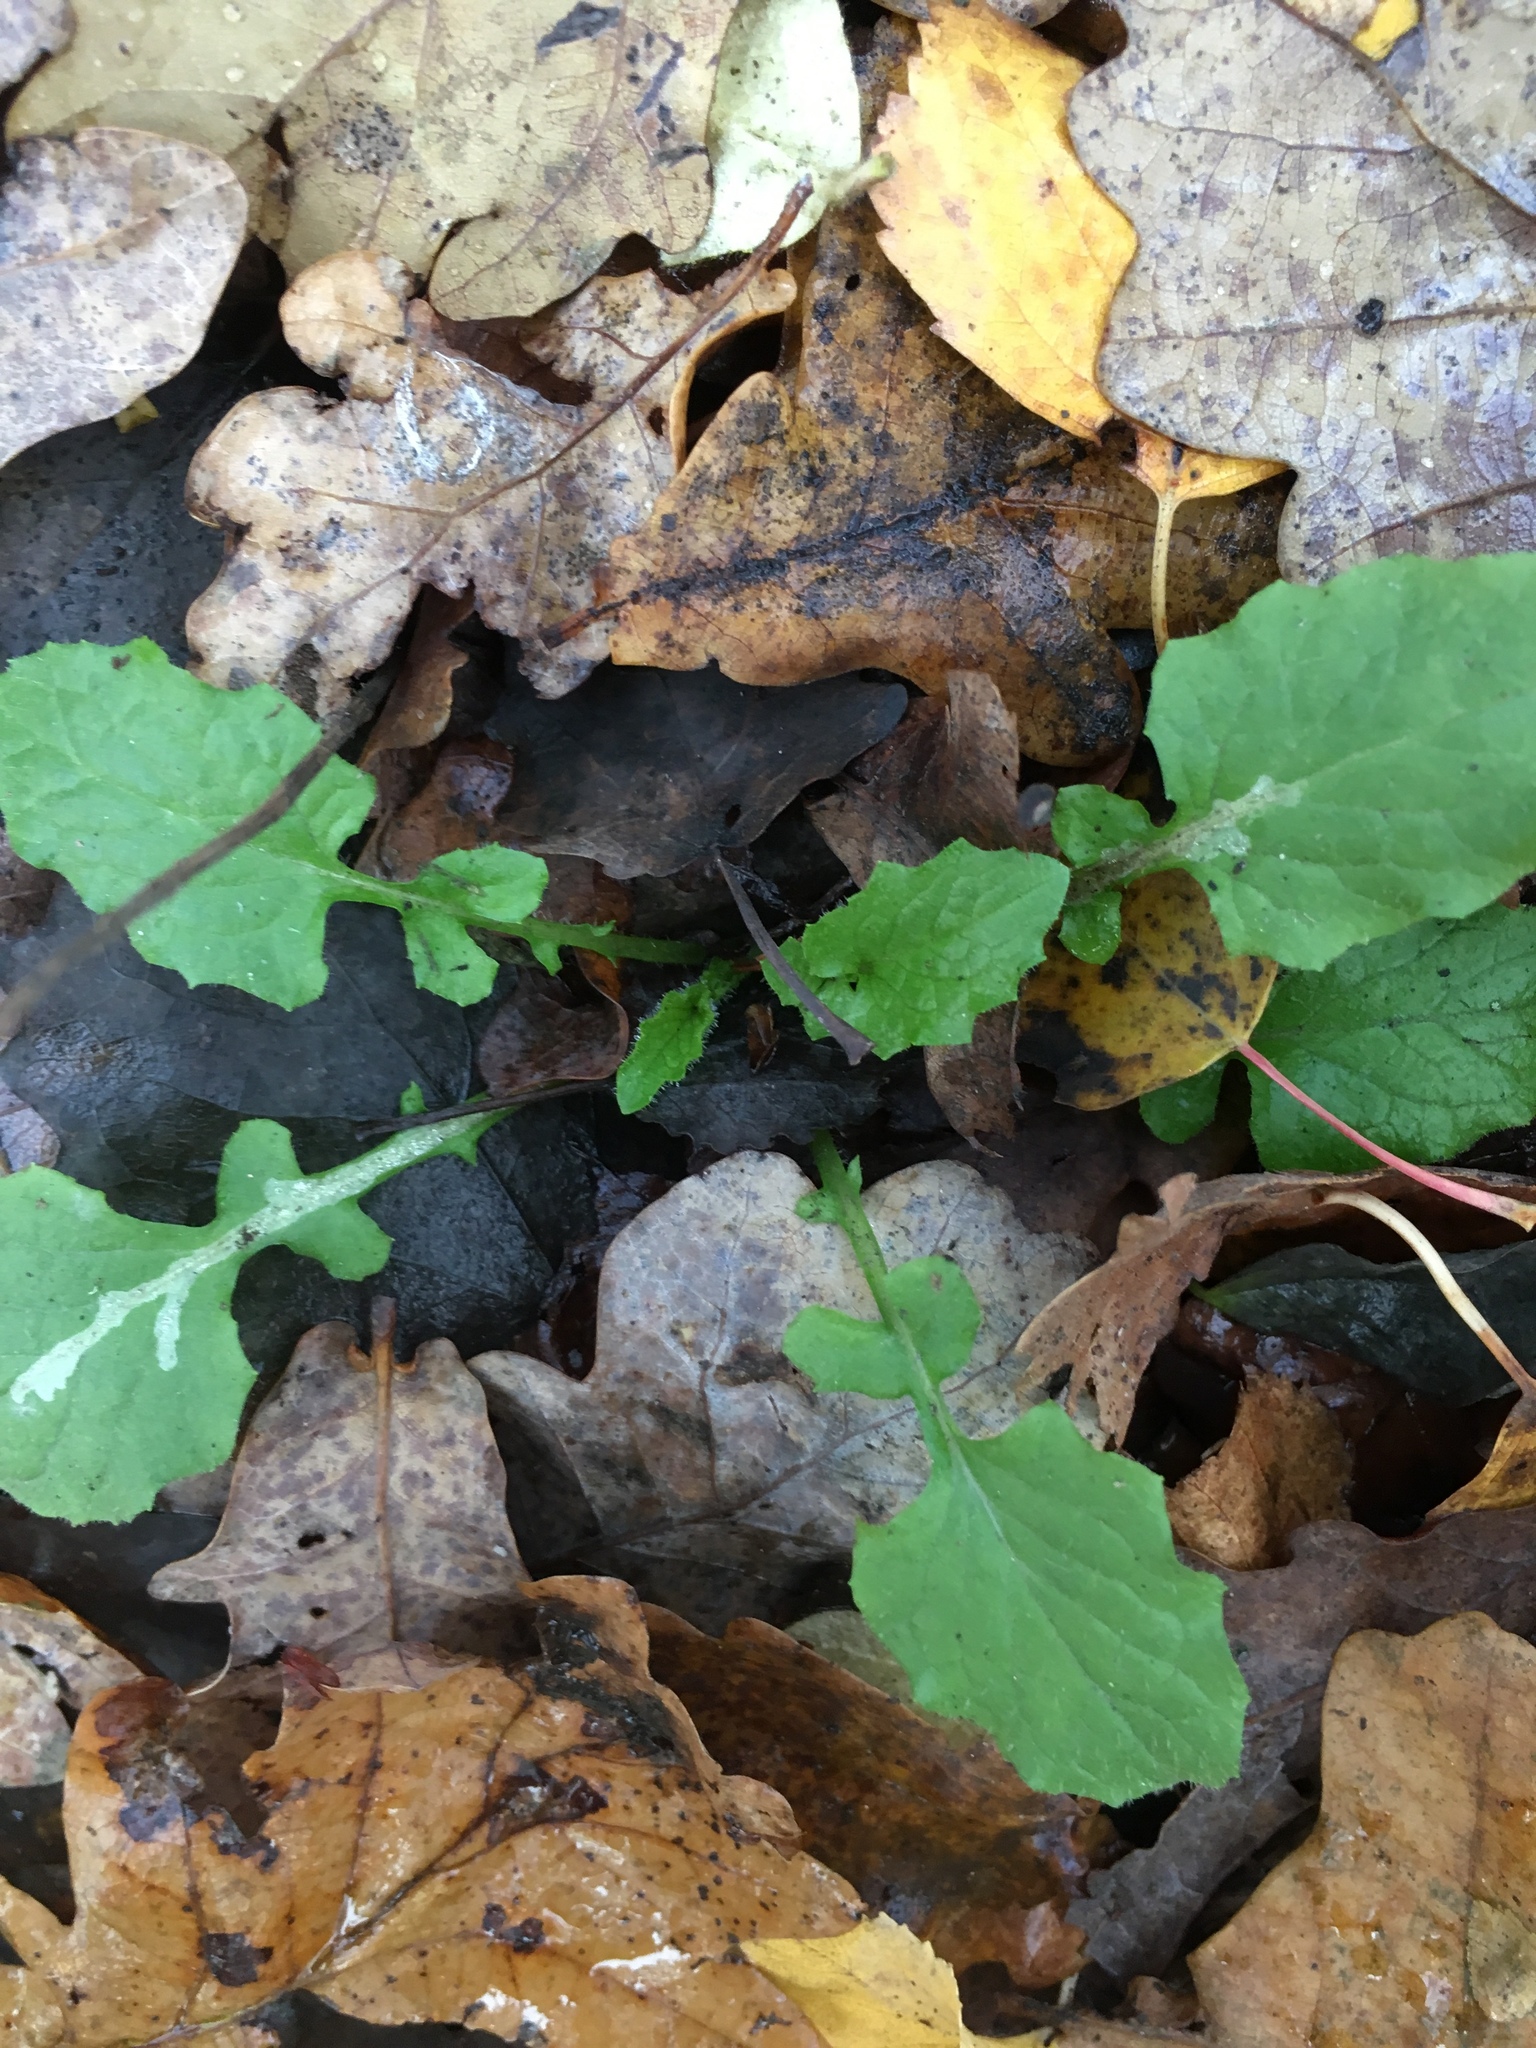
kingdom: Plantae
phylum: Tracheophyta
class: Magnoliopsida
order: Asterales
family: Asteraceae
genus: Lapsana
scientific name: Lapsana communis
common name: Nipplewort
